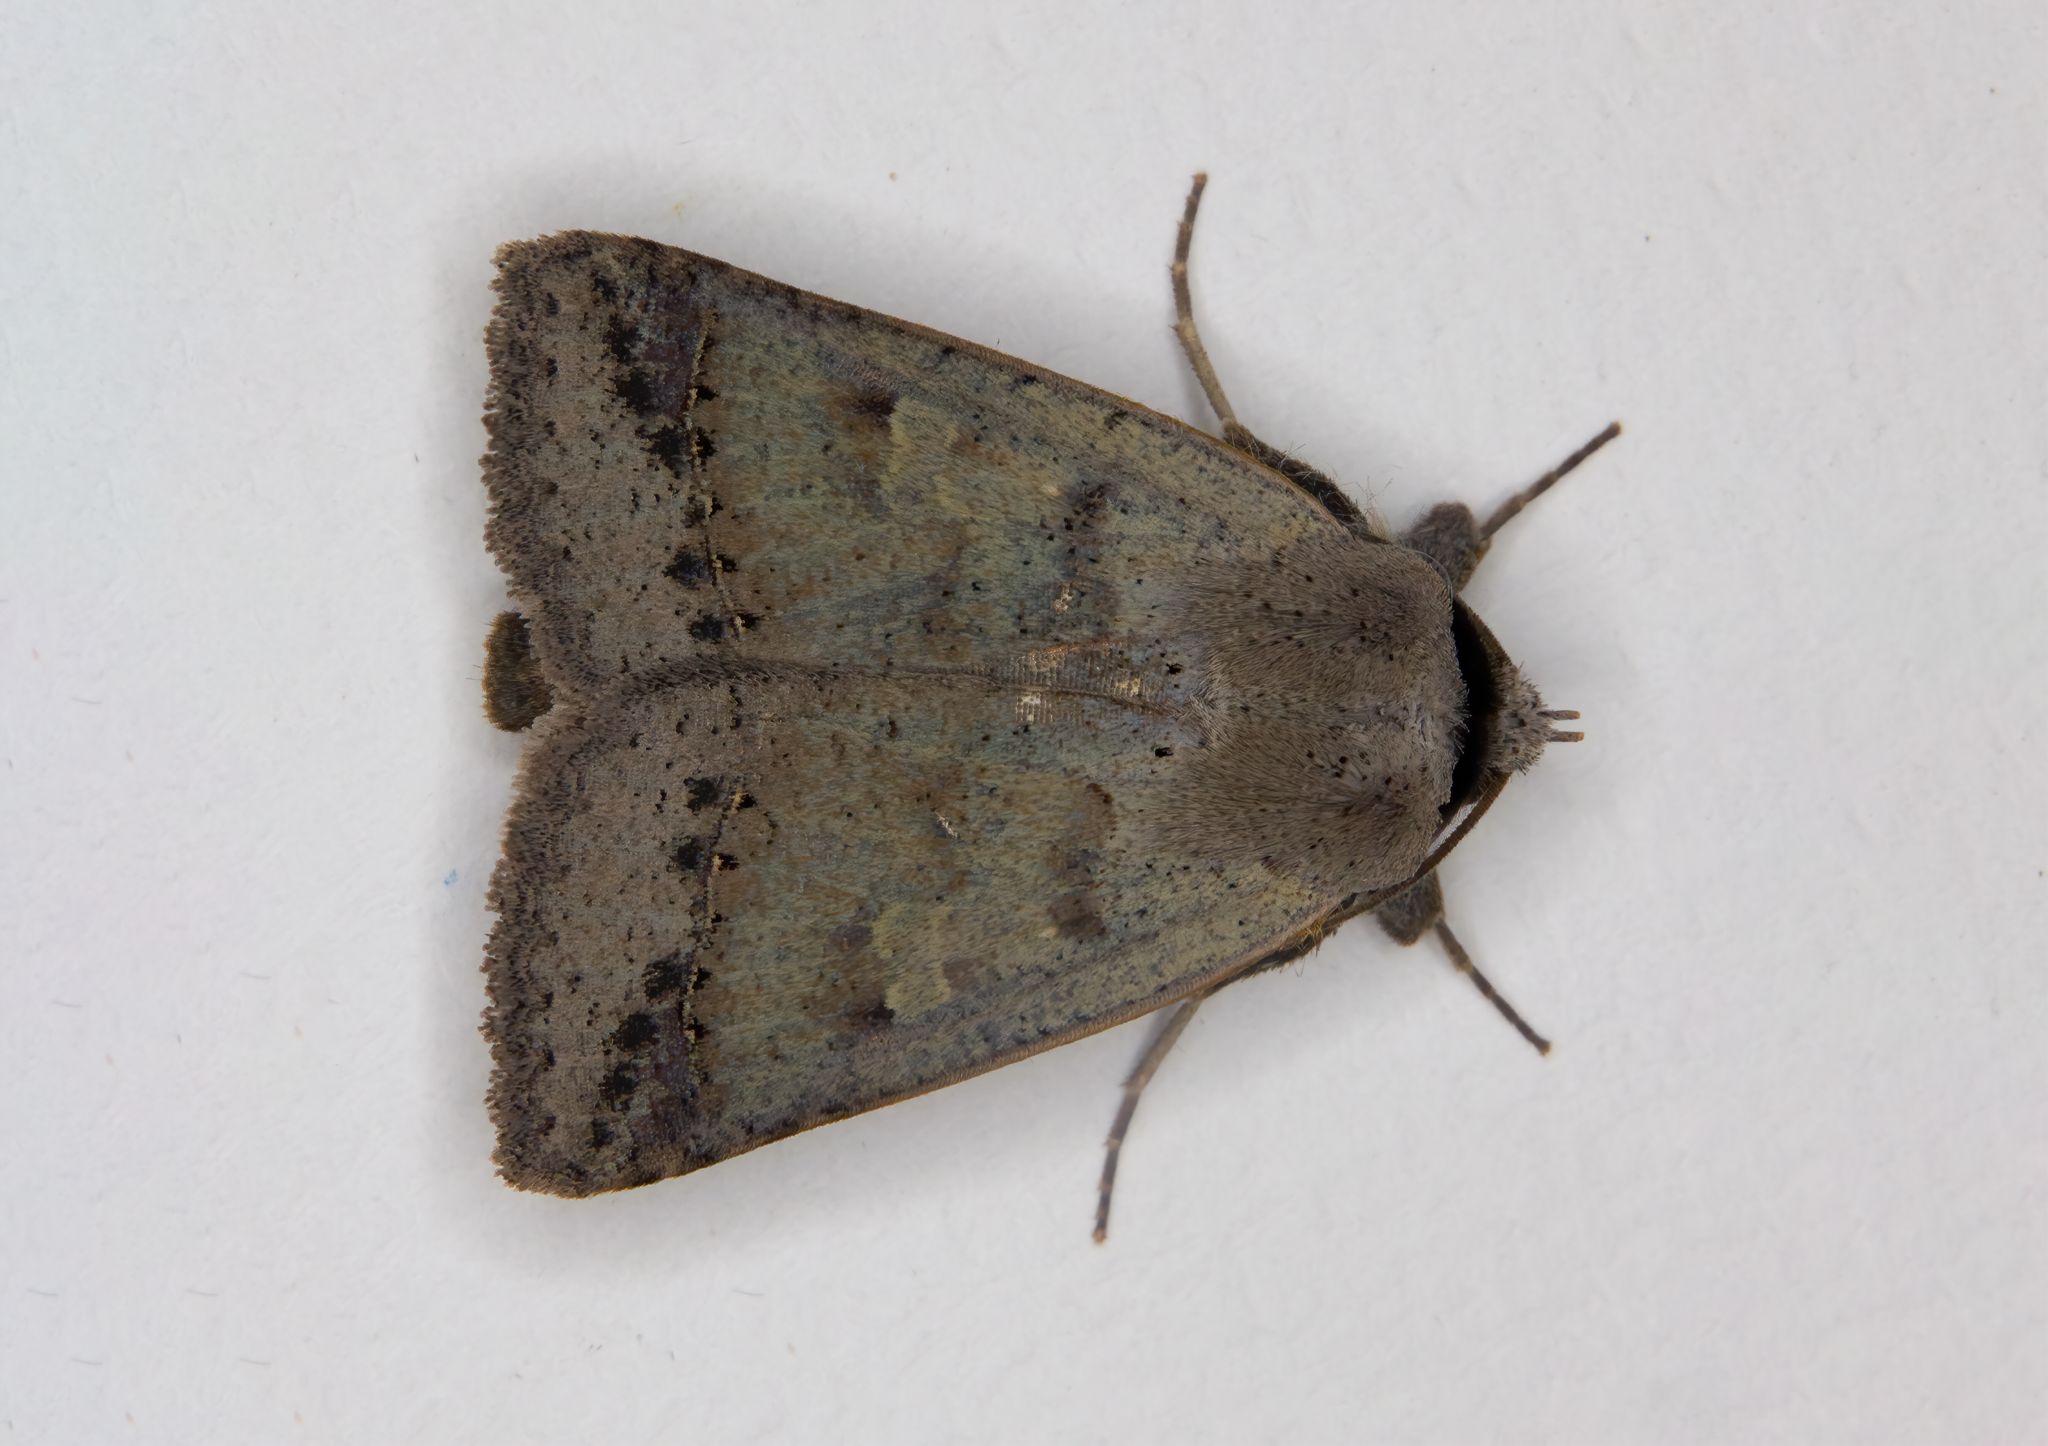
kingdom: Animalia
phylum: Arthropoda
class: Insecta
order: Lepidoptera
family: Erebidae
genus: Pantydia
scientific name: Pantydia sparsa
